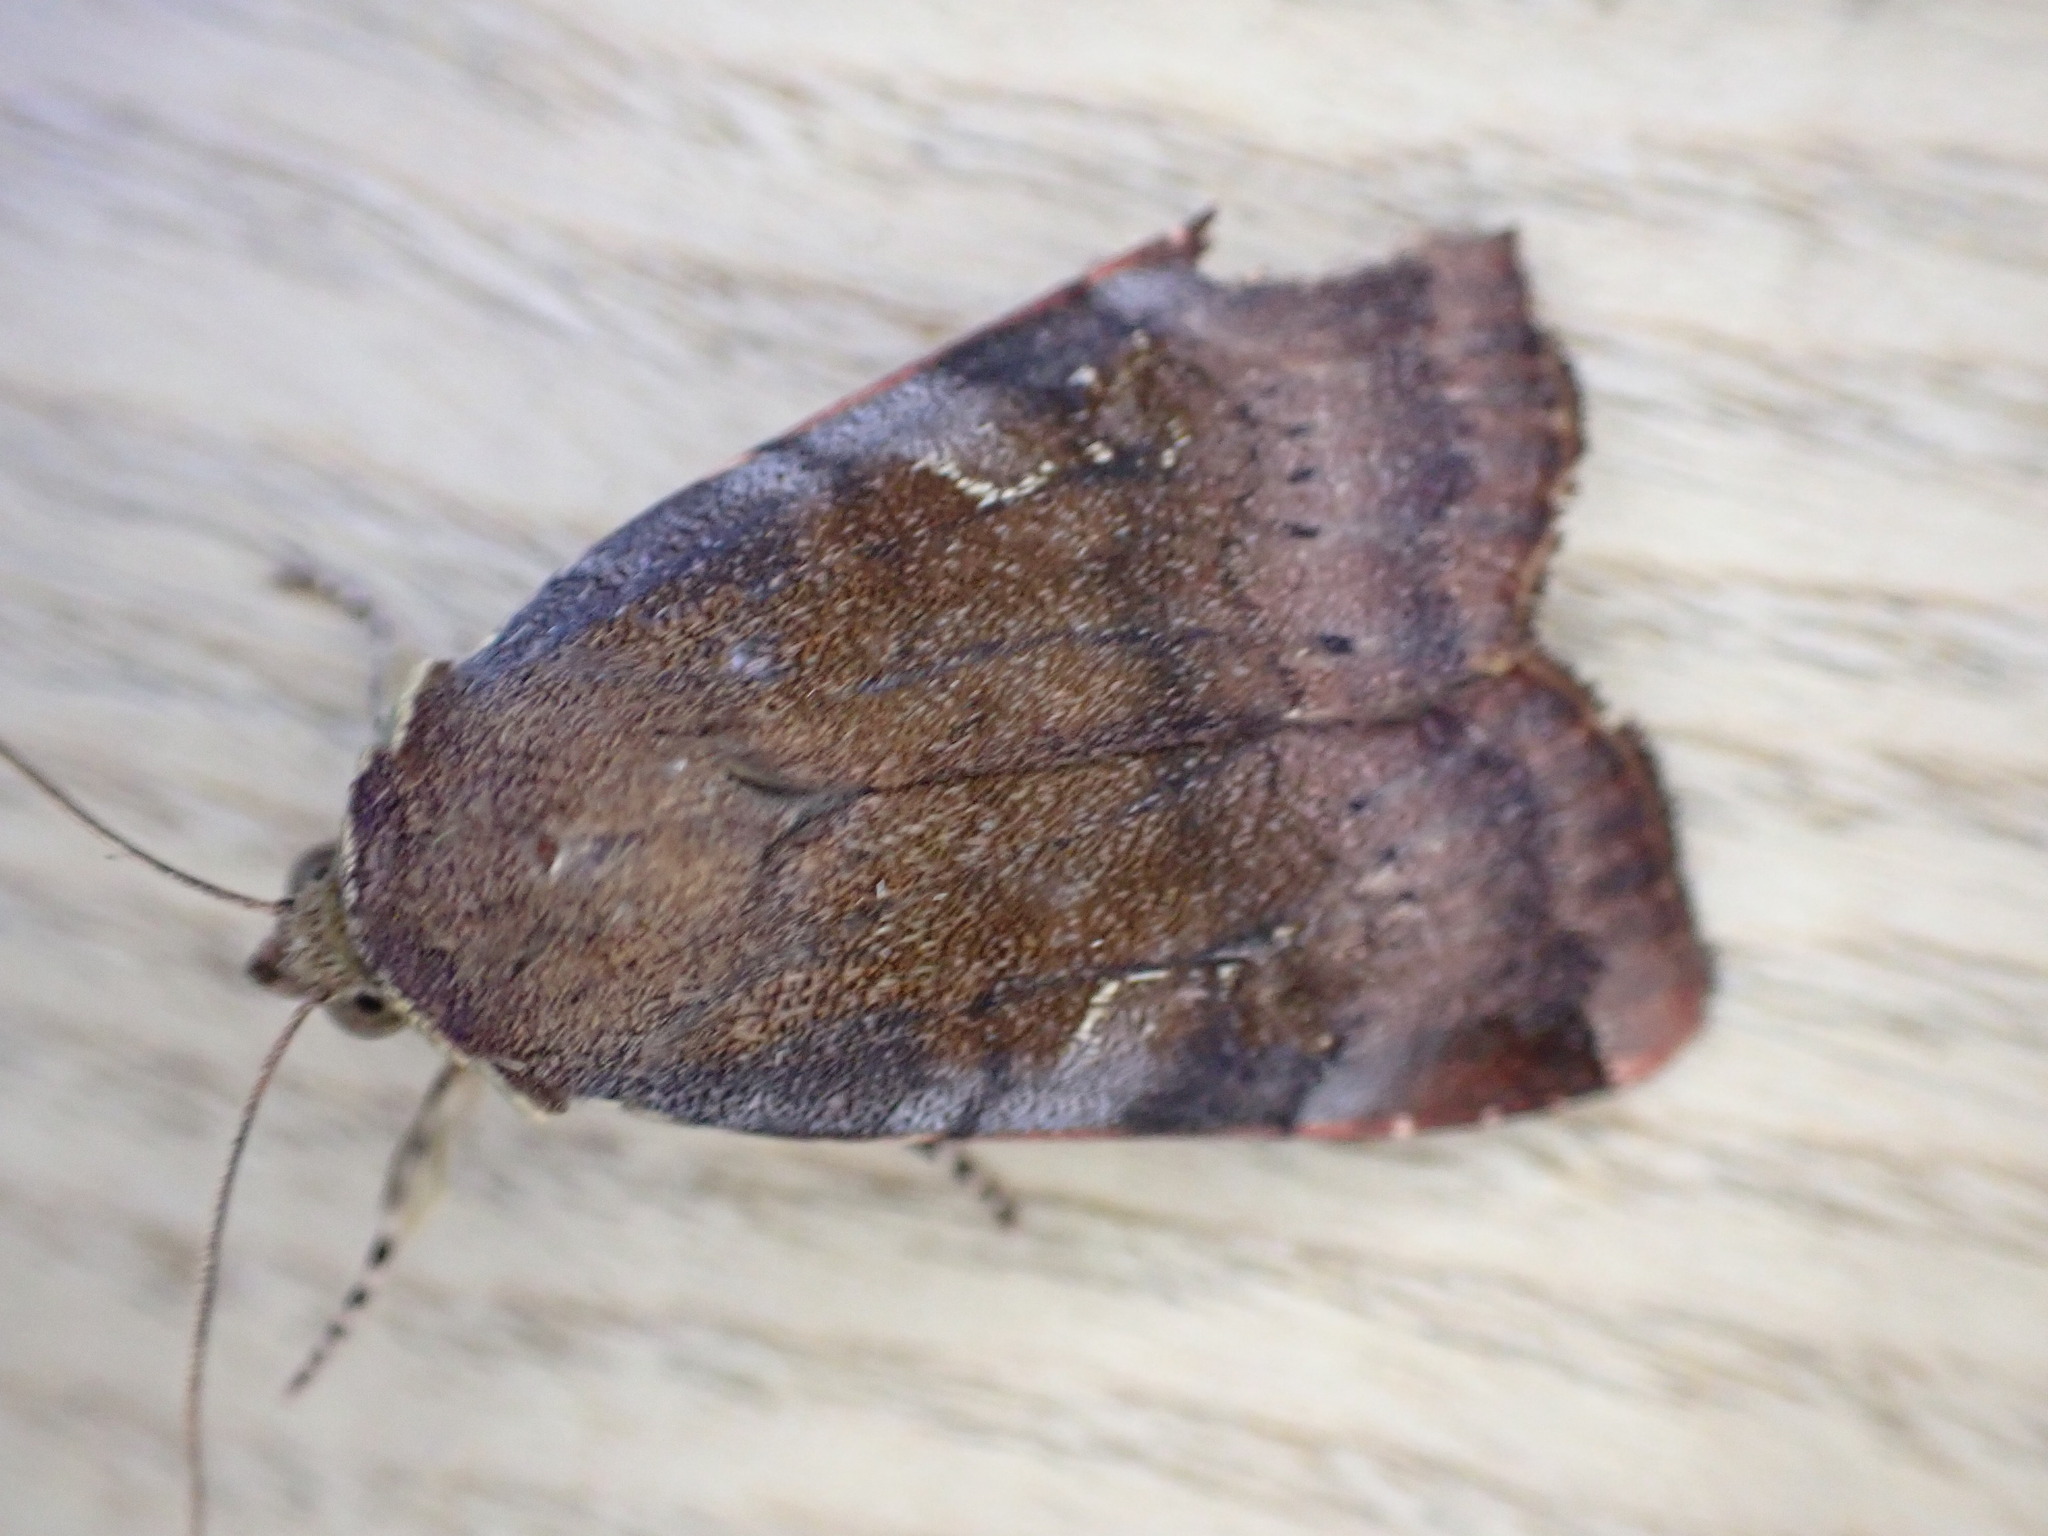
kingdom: Animalia
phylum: Arthropoda
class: Insecta
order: Lepidoptera
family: Noctuidae
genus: Noctua
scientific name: Noctua janthe
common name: Lesser broad-bordered yellow underwing
